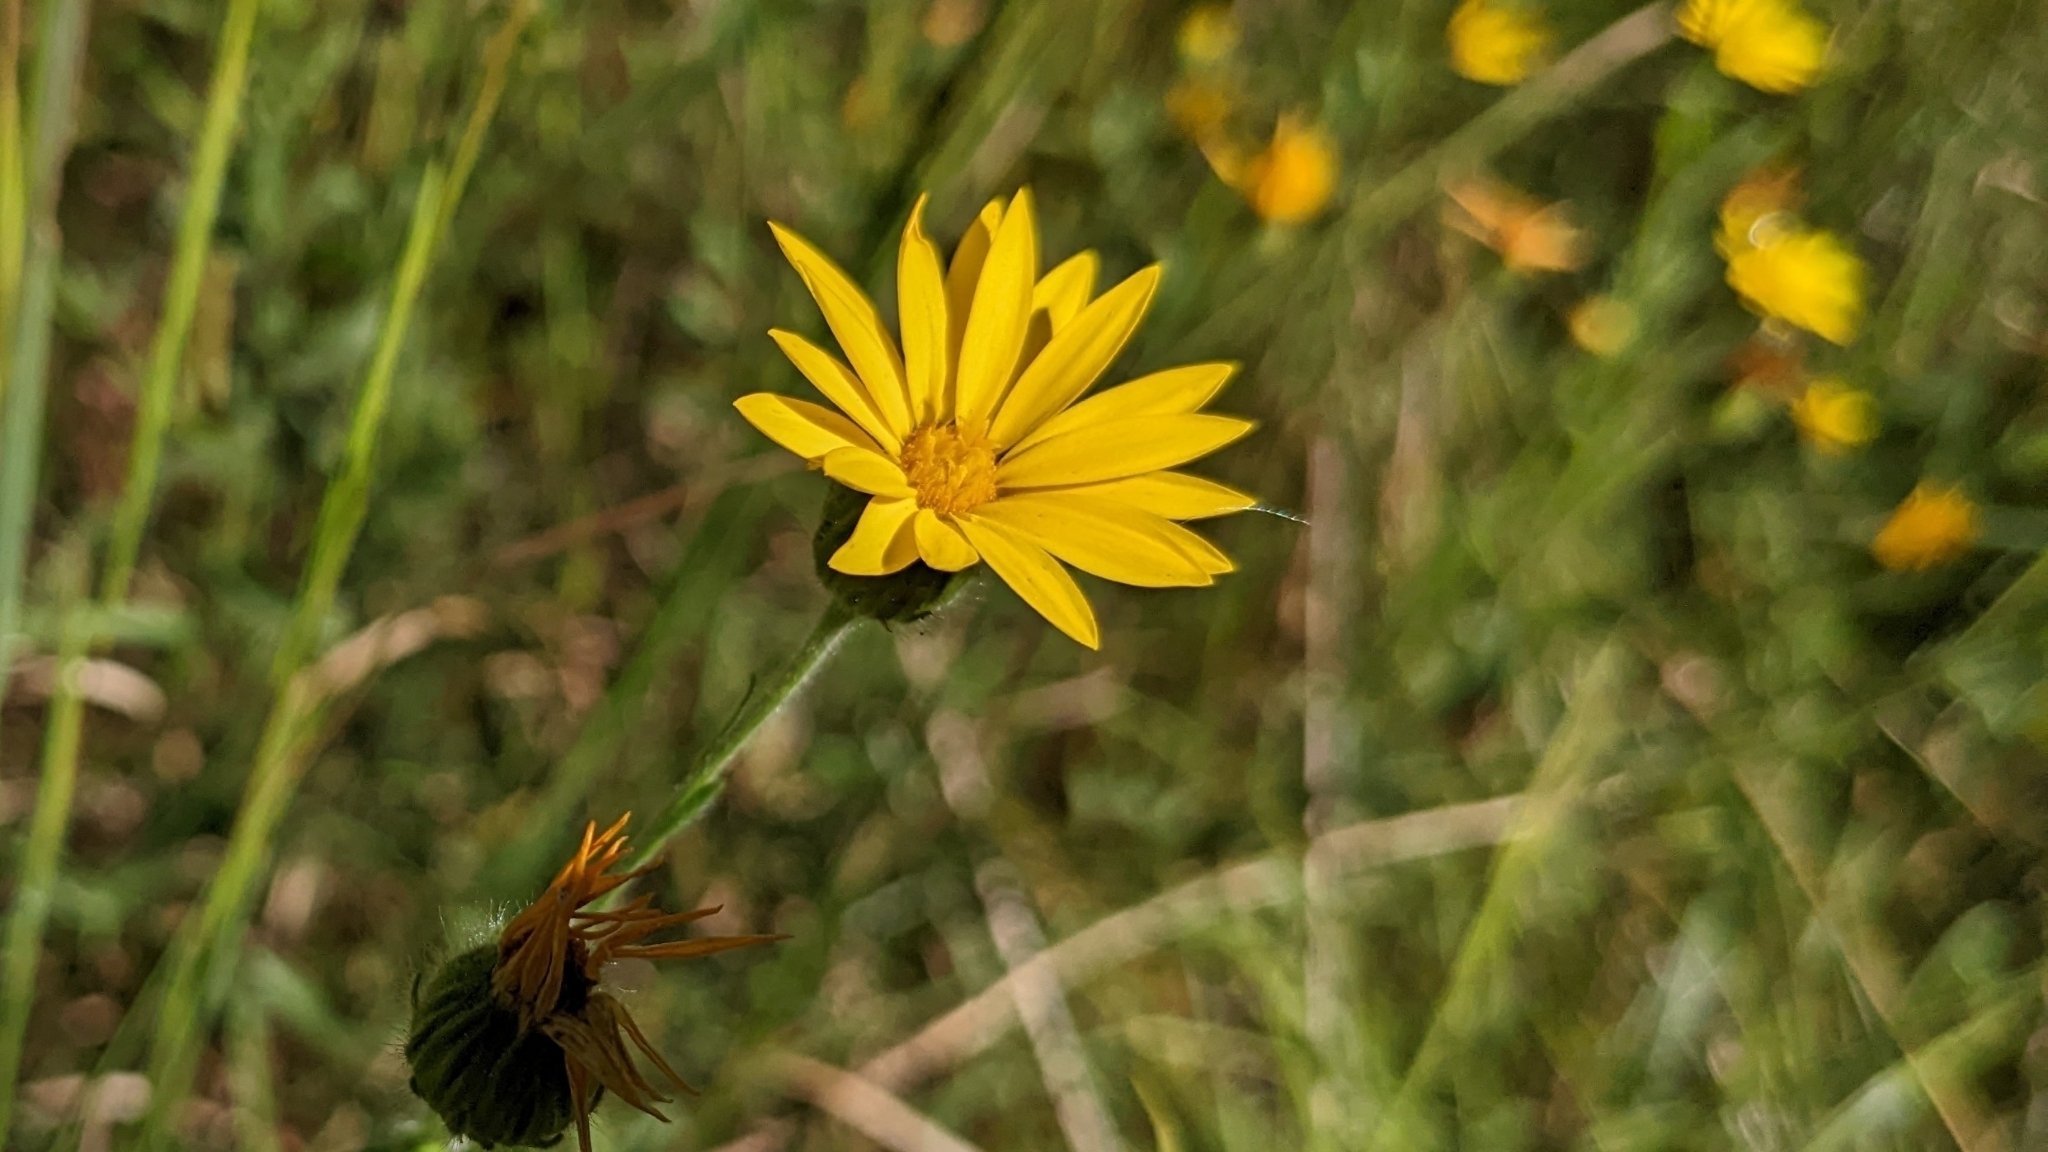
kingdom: Plantae
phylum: Tracheophyta
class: Magnoliopsida
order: Asterales
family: Asteraceae
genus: Bradburia
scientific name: Bradburia pilosa
